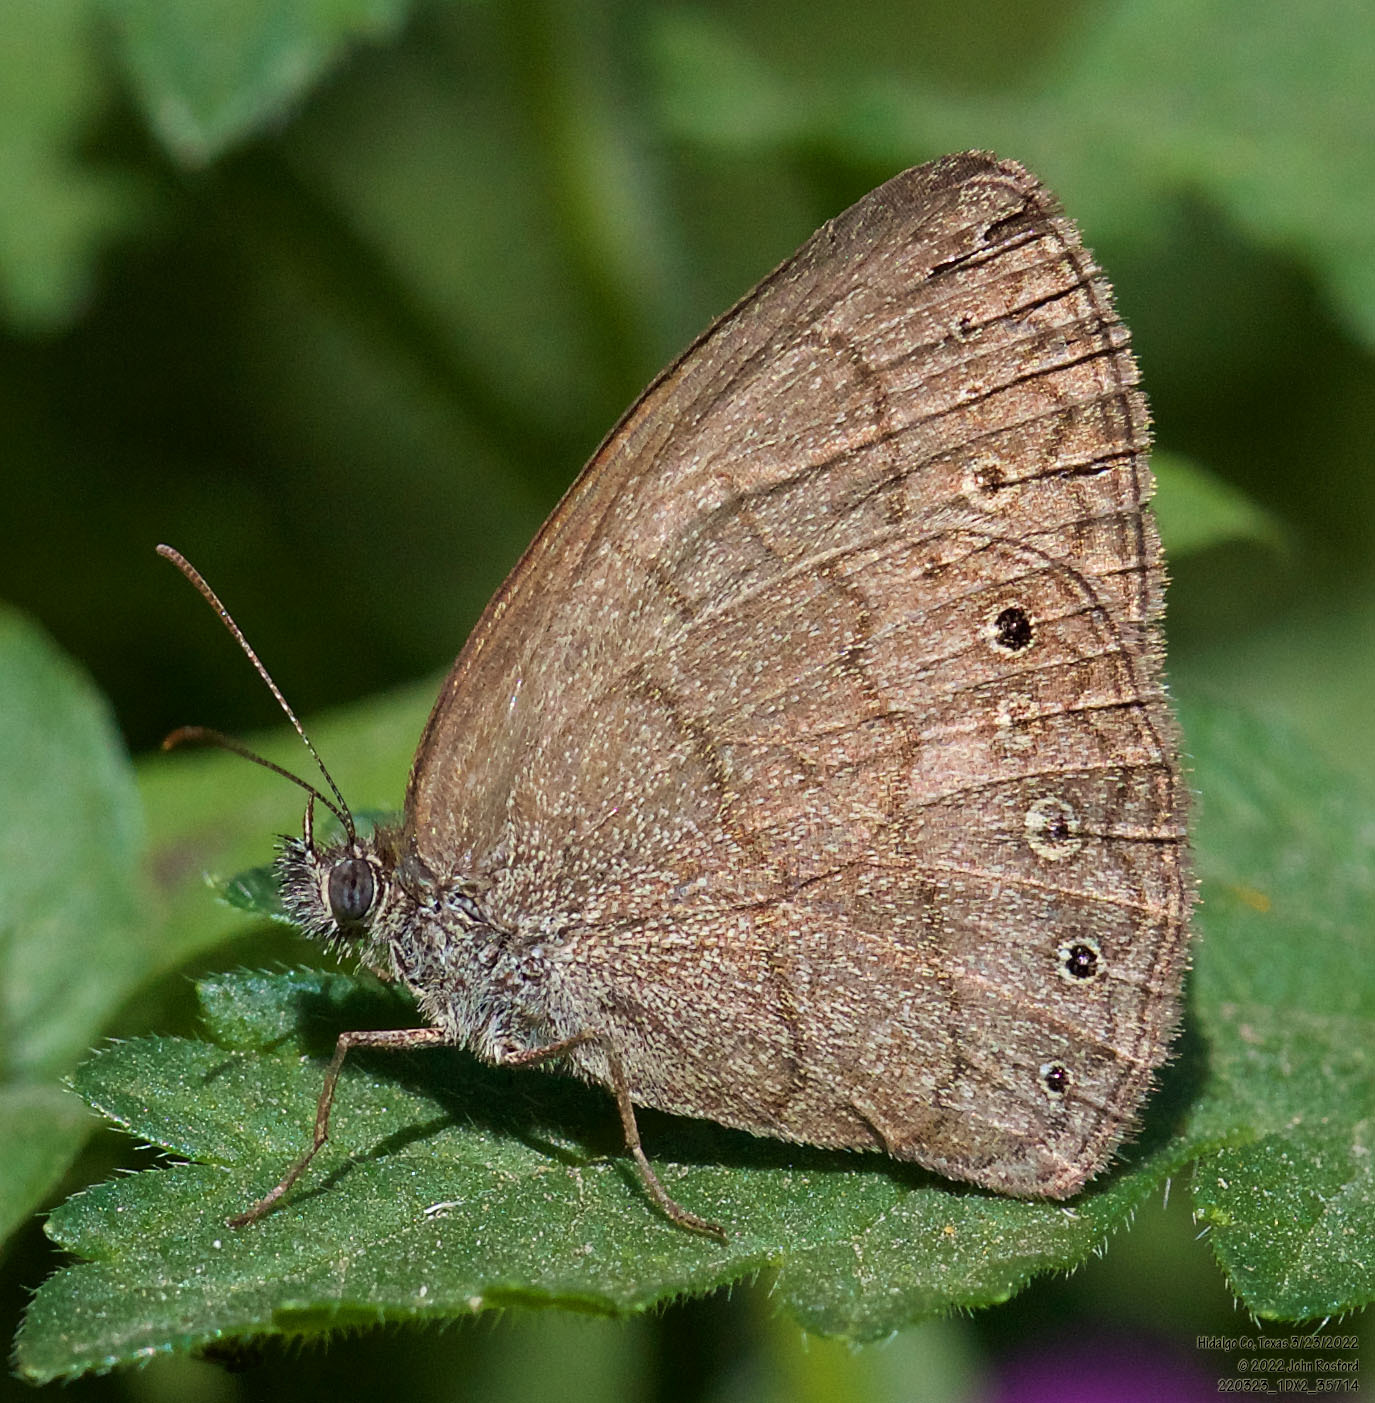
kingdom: Animalia
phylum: Arthropoda
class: Insecta
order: Lepidoptera
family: Nymphalidae
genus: Hermeuptychia
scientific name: Hermeuptychia hermybius
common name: South texas satyr
